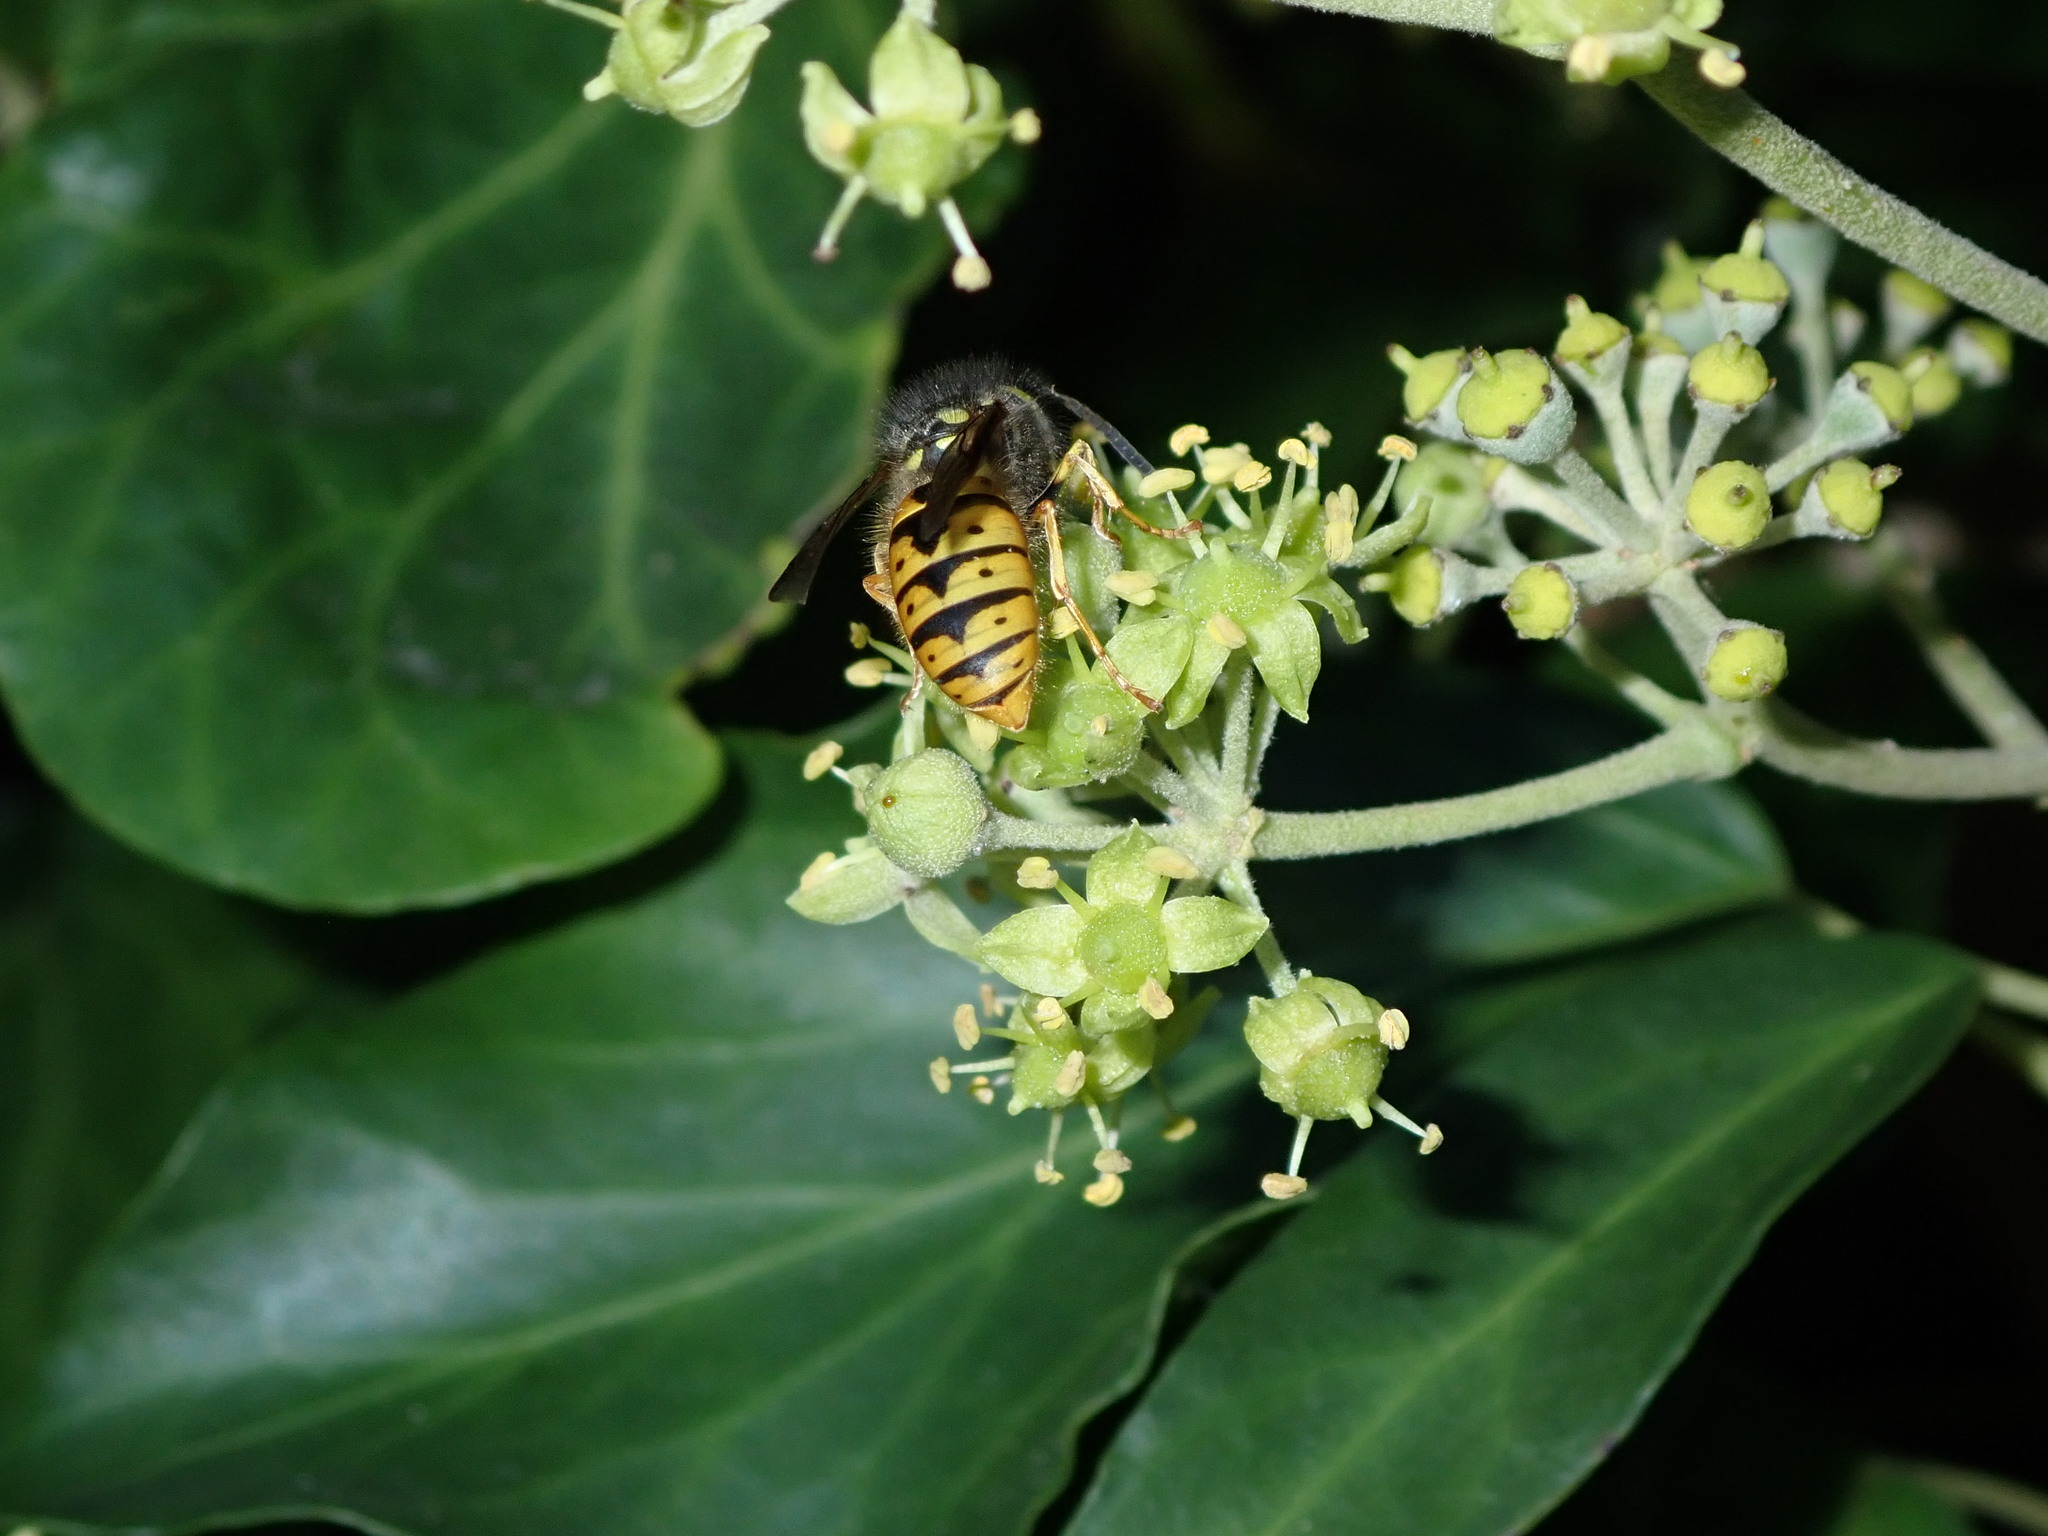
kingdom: Animalia
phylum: Arthropoda
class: Insecta
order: Hymenoptera
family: Vespidae
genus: Vespula
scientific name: Vespula germanica
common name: German wasp
